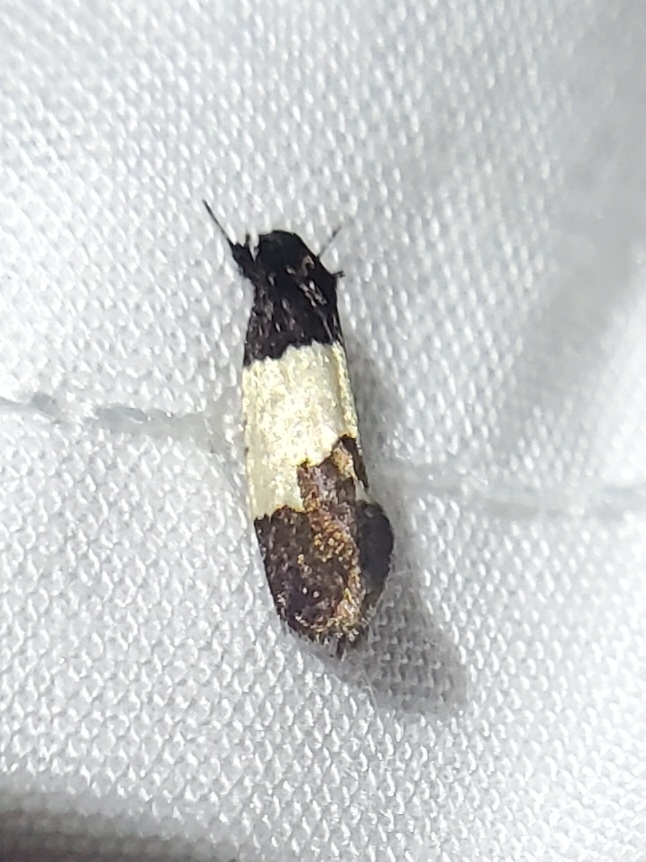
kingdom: Animalia
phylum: Arthropoda
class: Insecta
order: Lepidoptera
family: Psychidae
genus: Kearfottia
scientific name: Kearfottia albifasciella
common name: White-patched kearfottia
